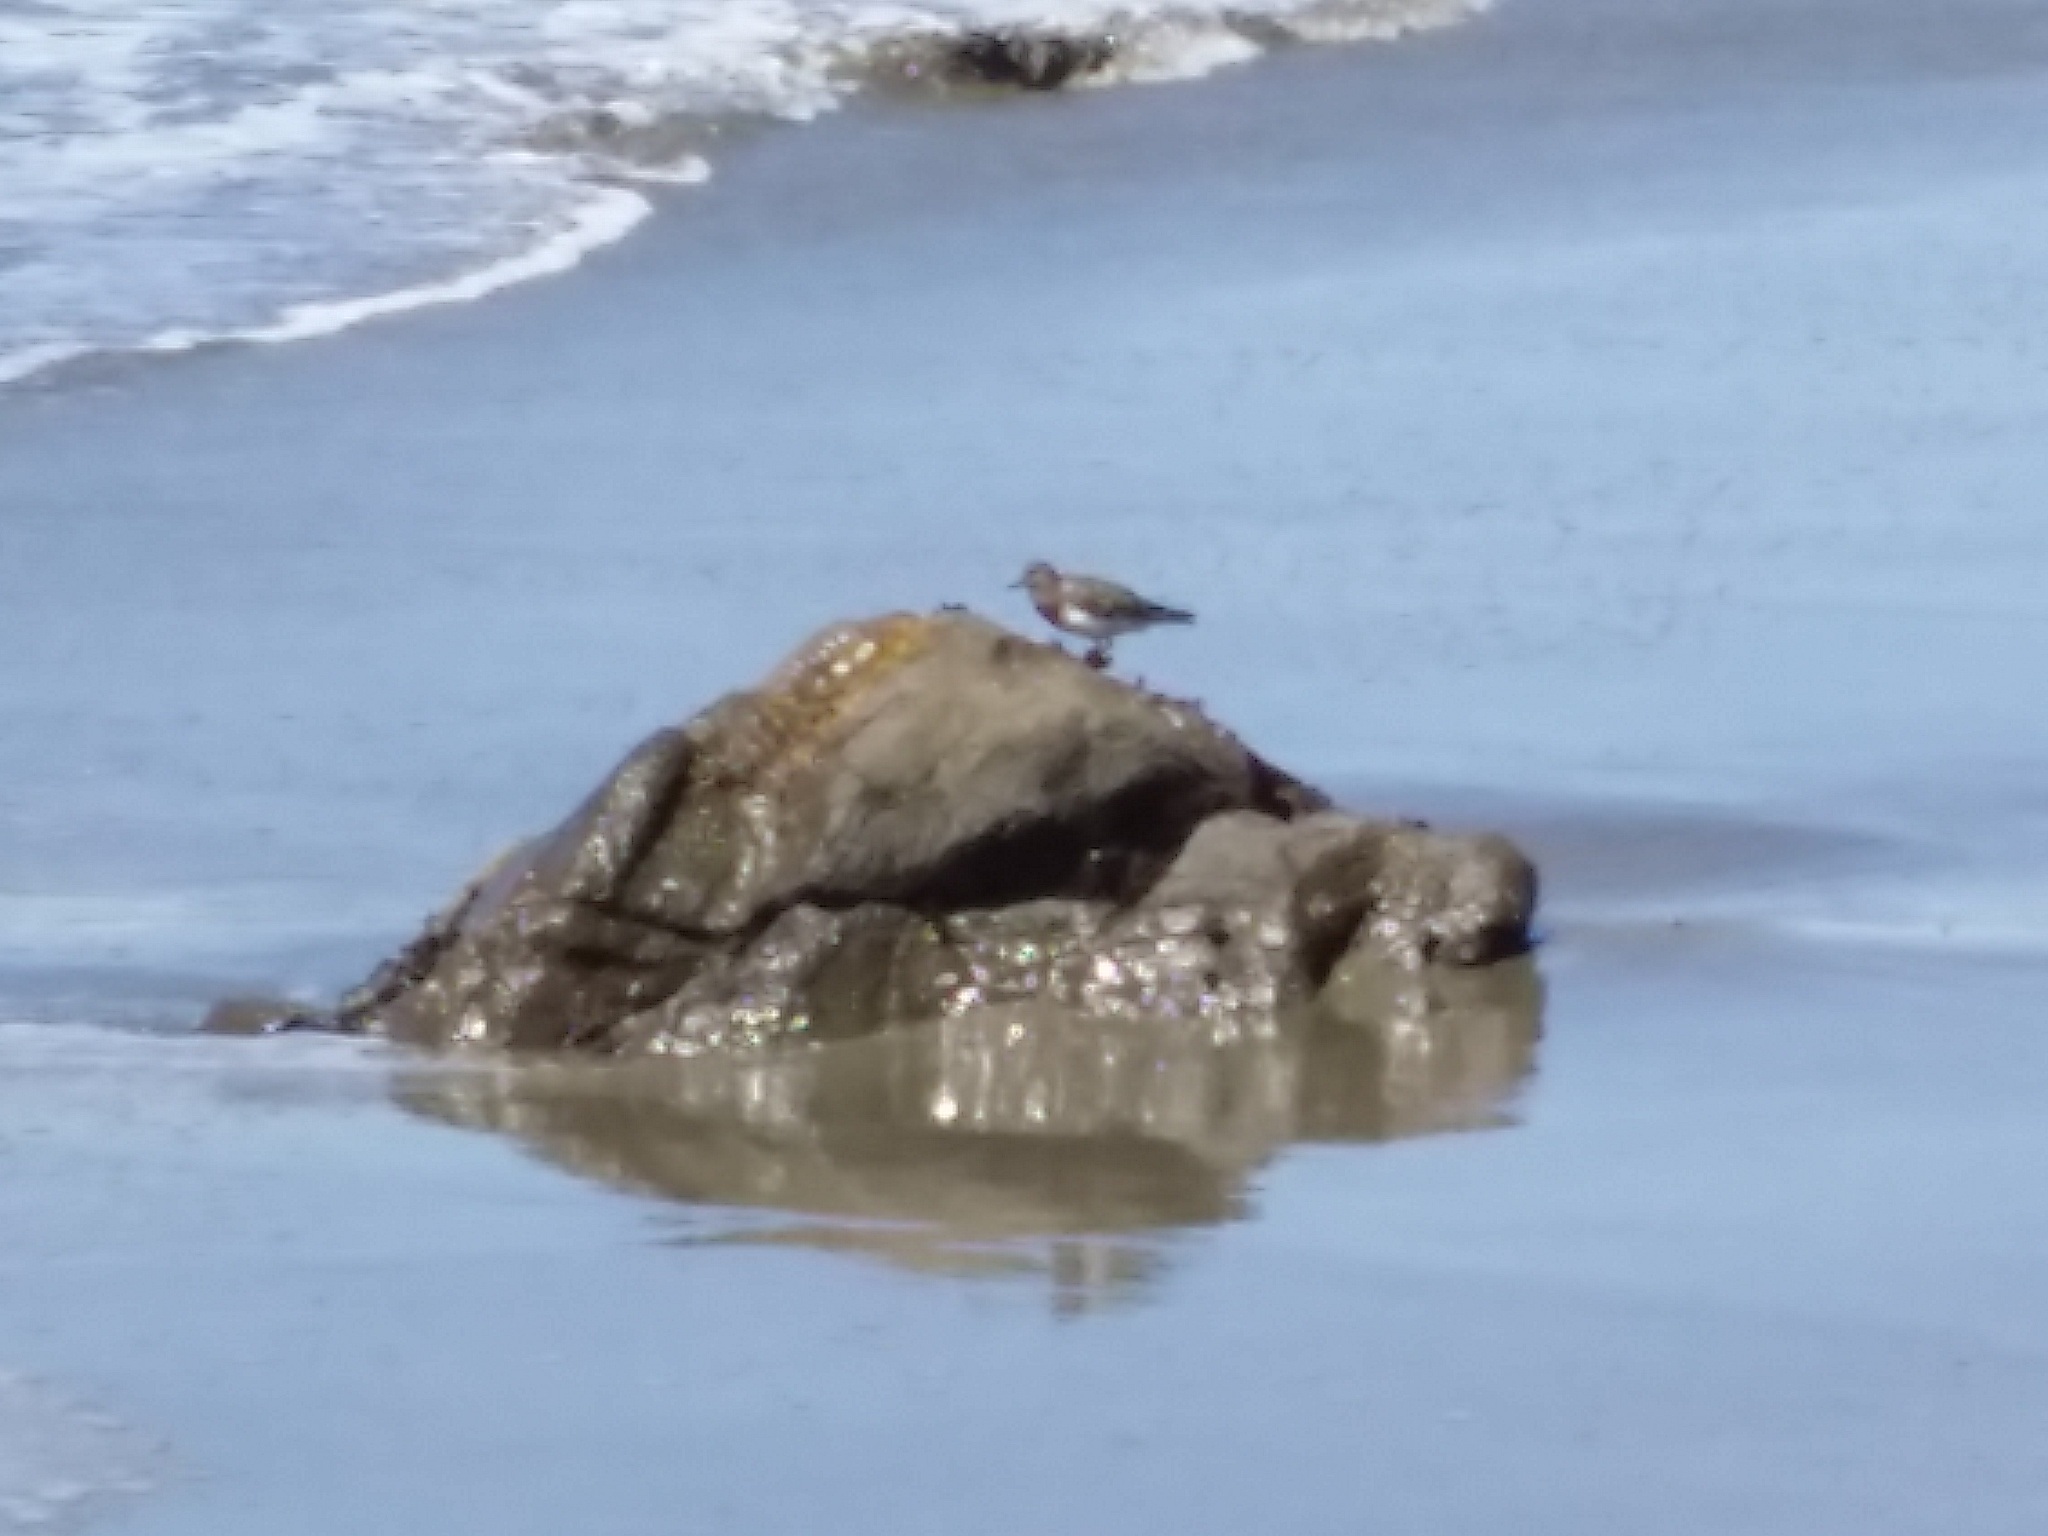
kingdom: Animalia
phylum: Chordata
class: Aves
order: Charadriiformes
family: Scolopacidae
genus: Arenaria
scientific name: Arenaria melanocephala
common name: Black turnstone
